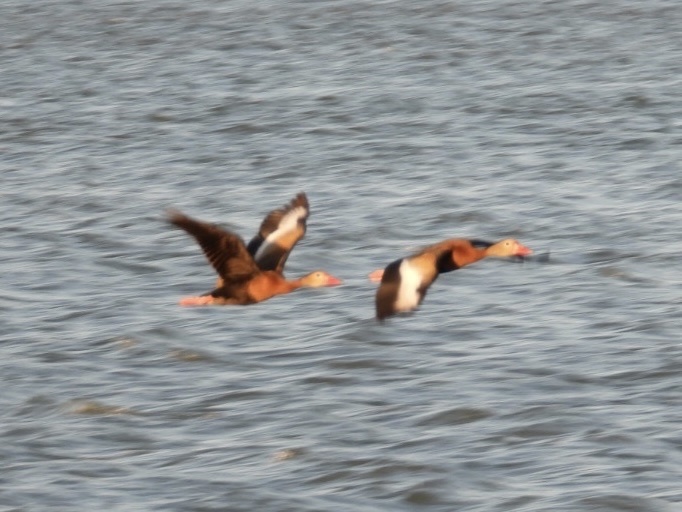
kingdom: Animalia
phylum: Chordata
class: Aves
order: Anseriformes
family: Anatidae
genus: Dendrocygna
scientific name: Dendrocygna autumnalis
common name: Black-bellied whistling duck
